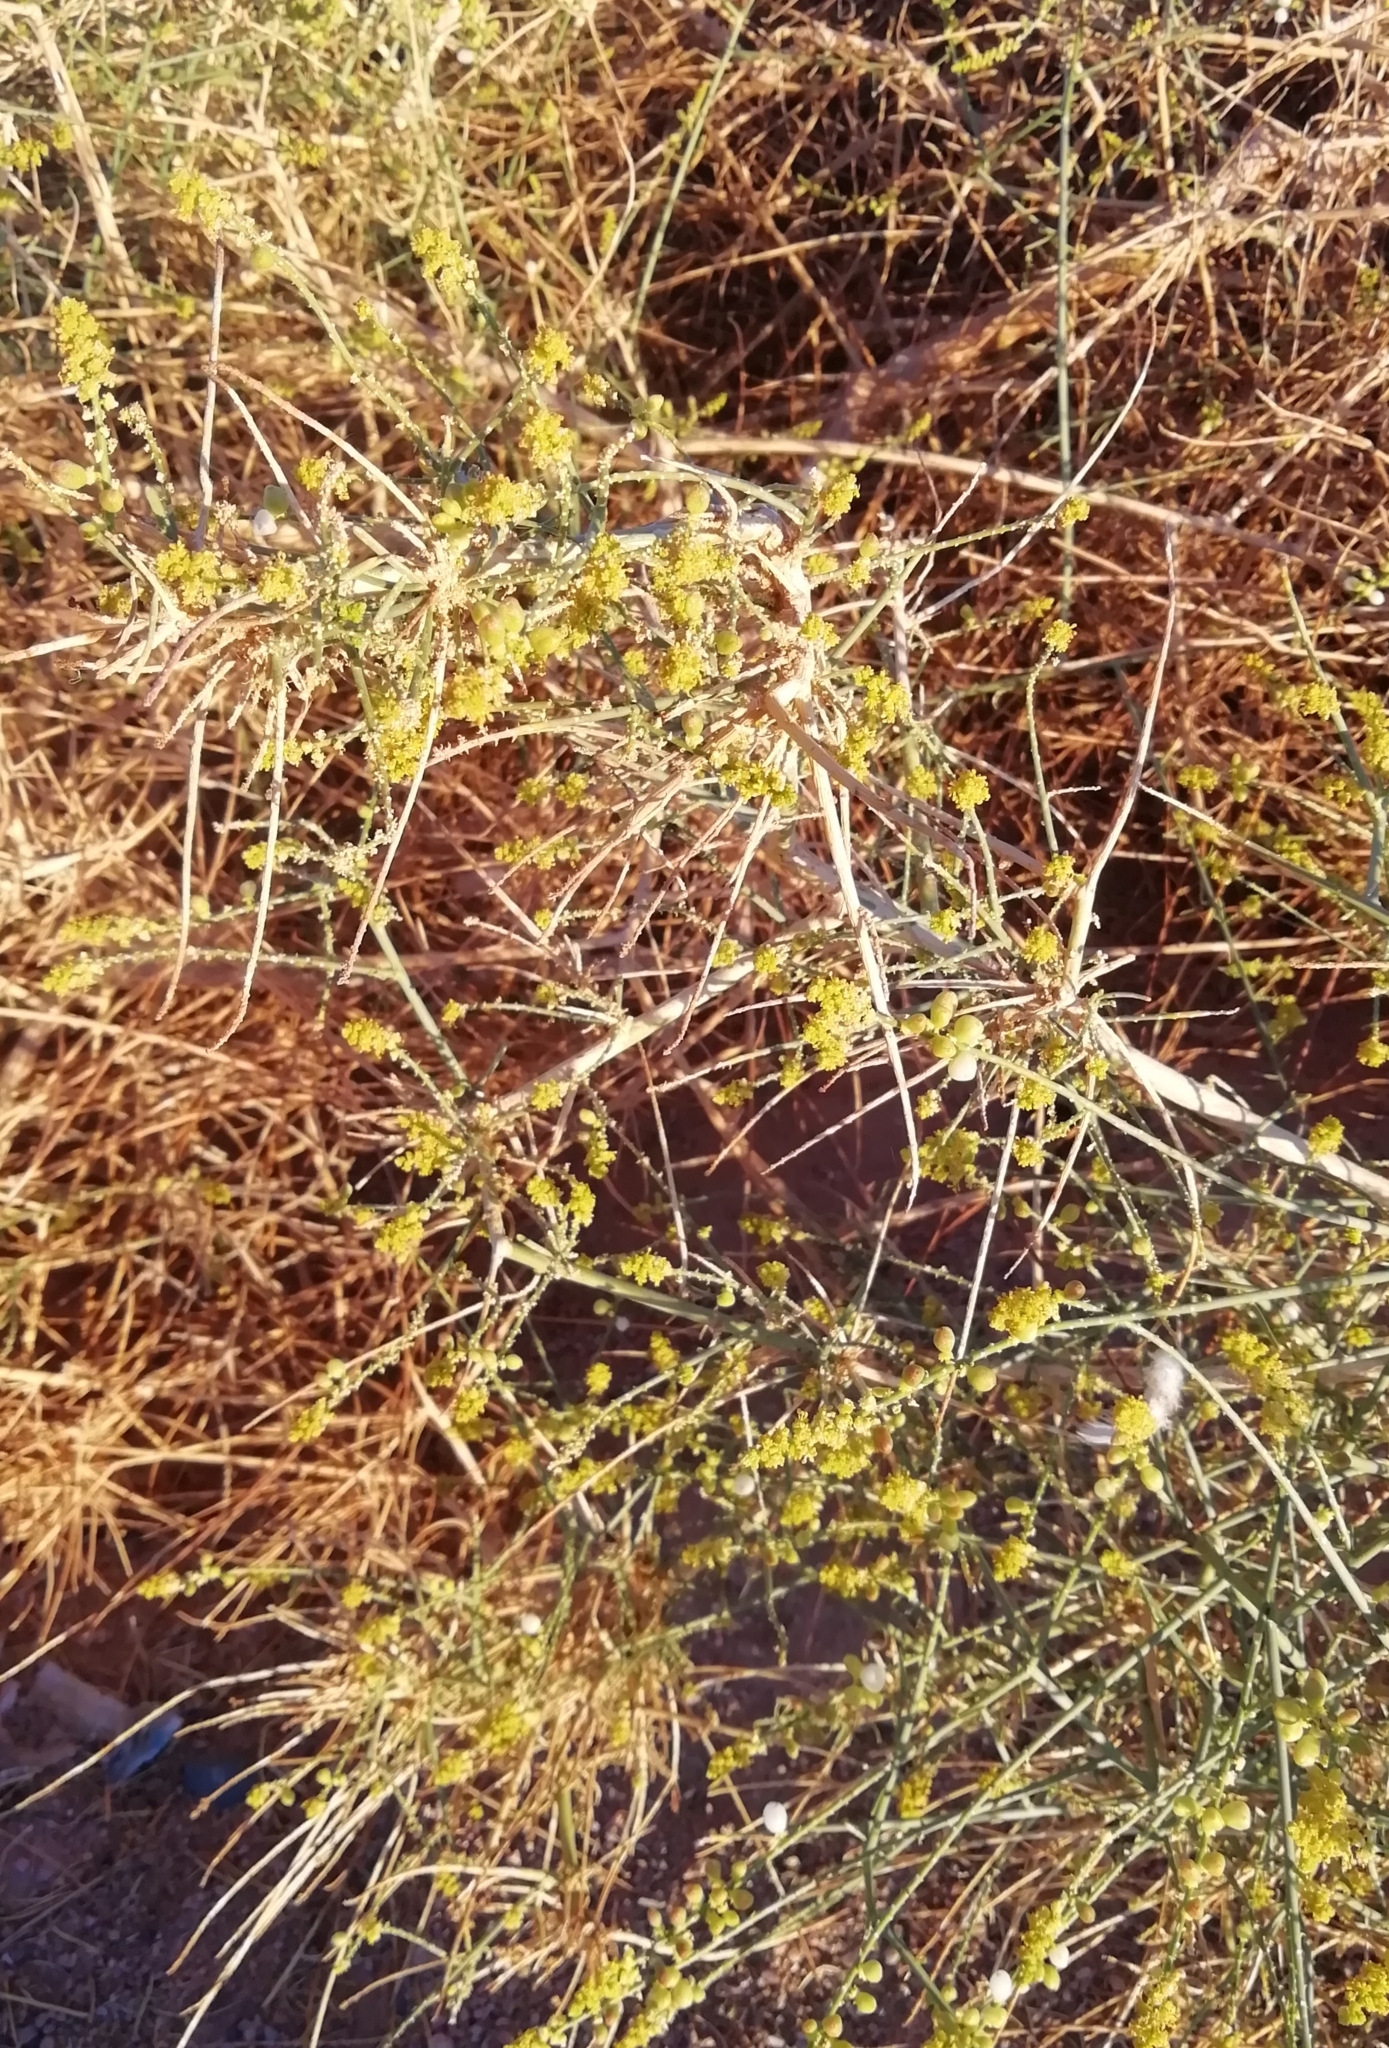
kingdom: Plantae
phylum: Tracheophyta
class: Magnoliopsida
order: Brassicales
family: Resedaceae
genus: Ochradenus
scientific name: Ochradenus baccatus
